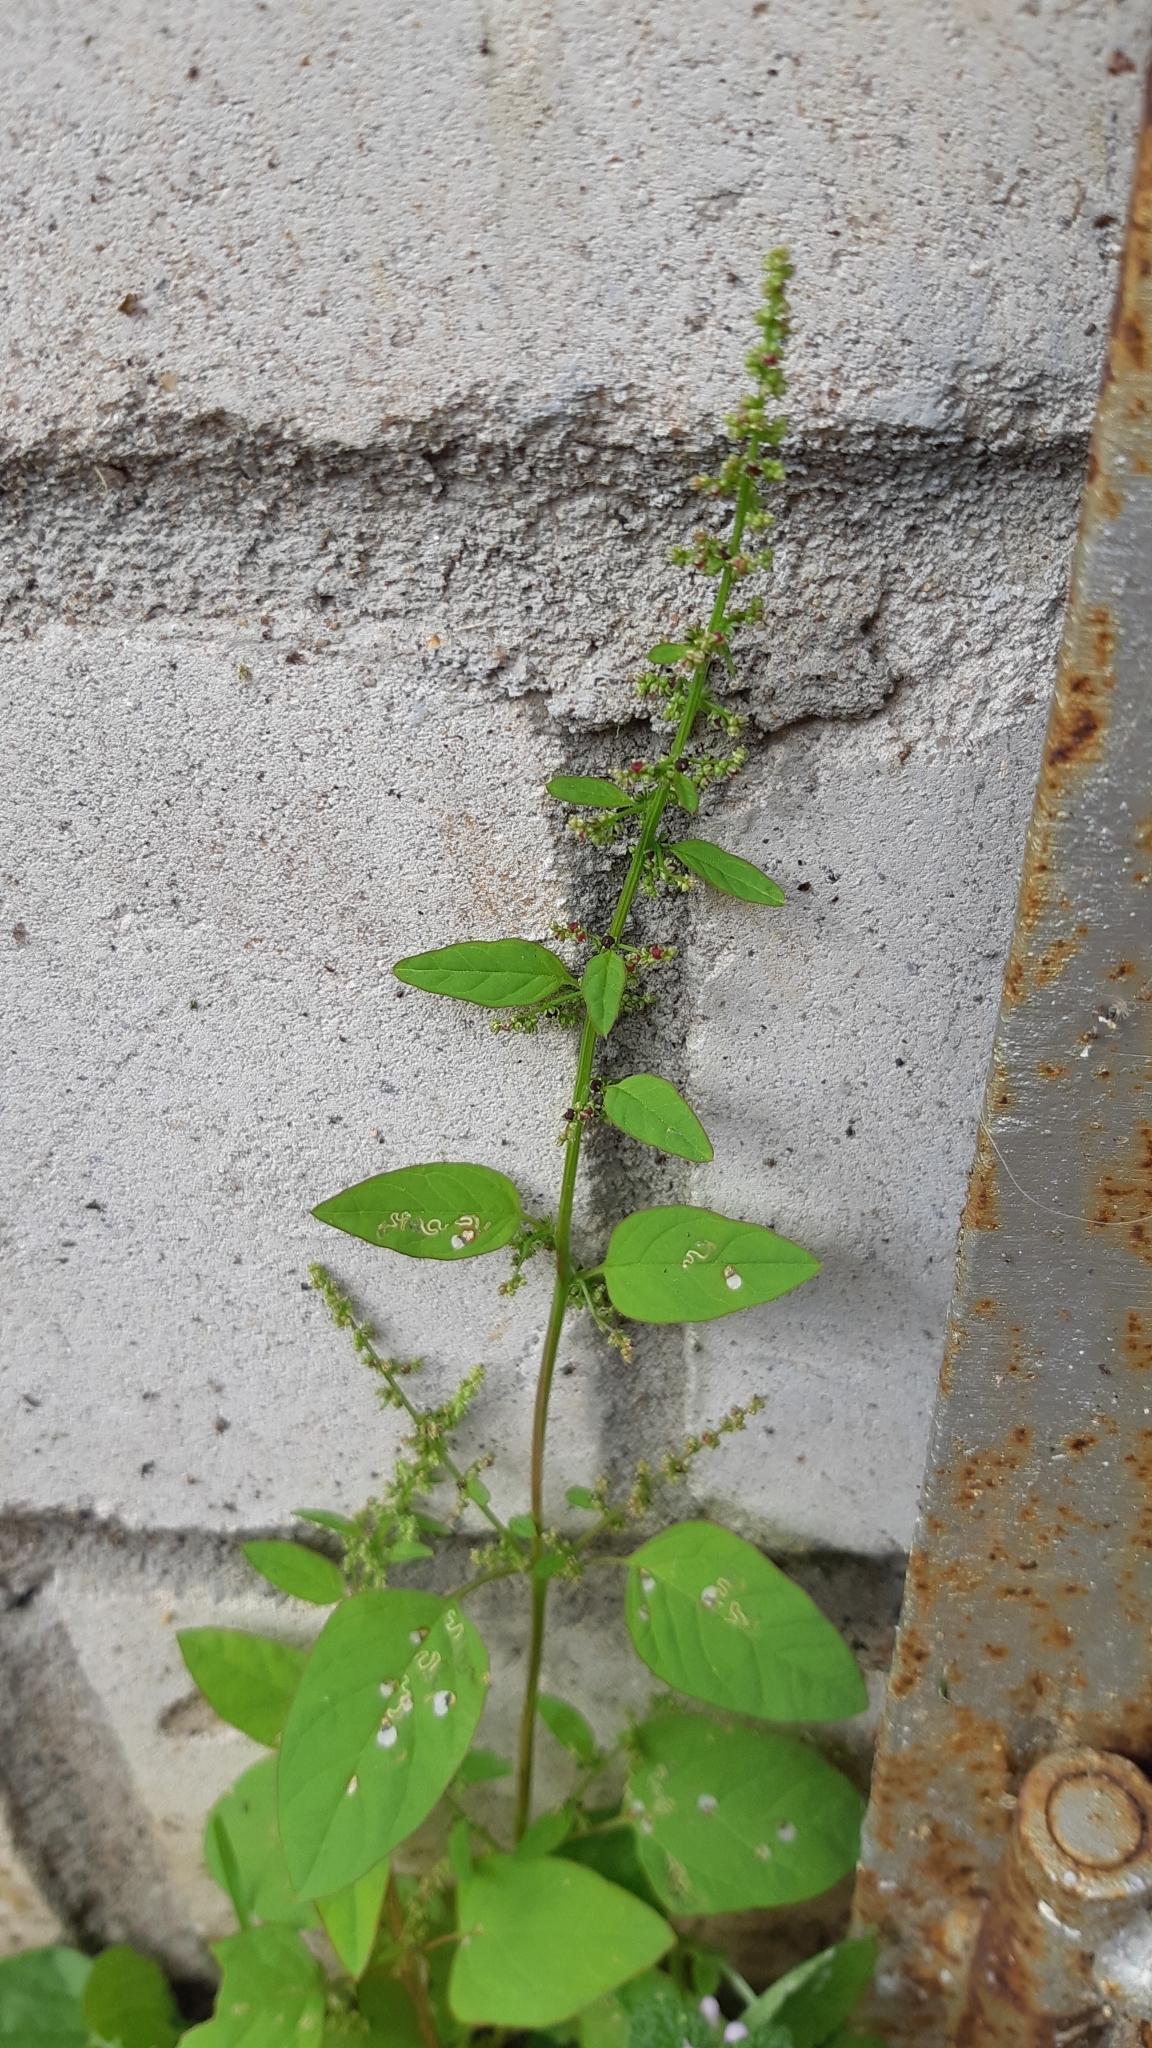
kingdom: Plantae
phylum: Tracheophyta
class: Magnoliopsida
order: Caryophyllales
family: Amaranthaceae
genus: Lipandra
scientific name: Lipandra polysperma
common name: Many-seed goosefoot
